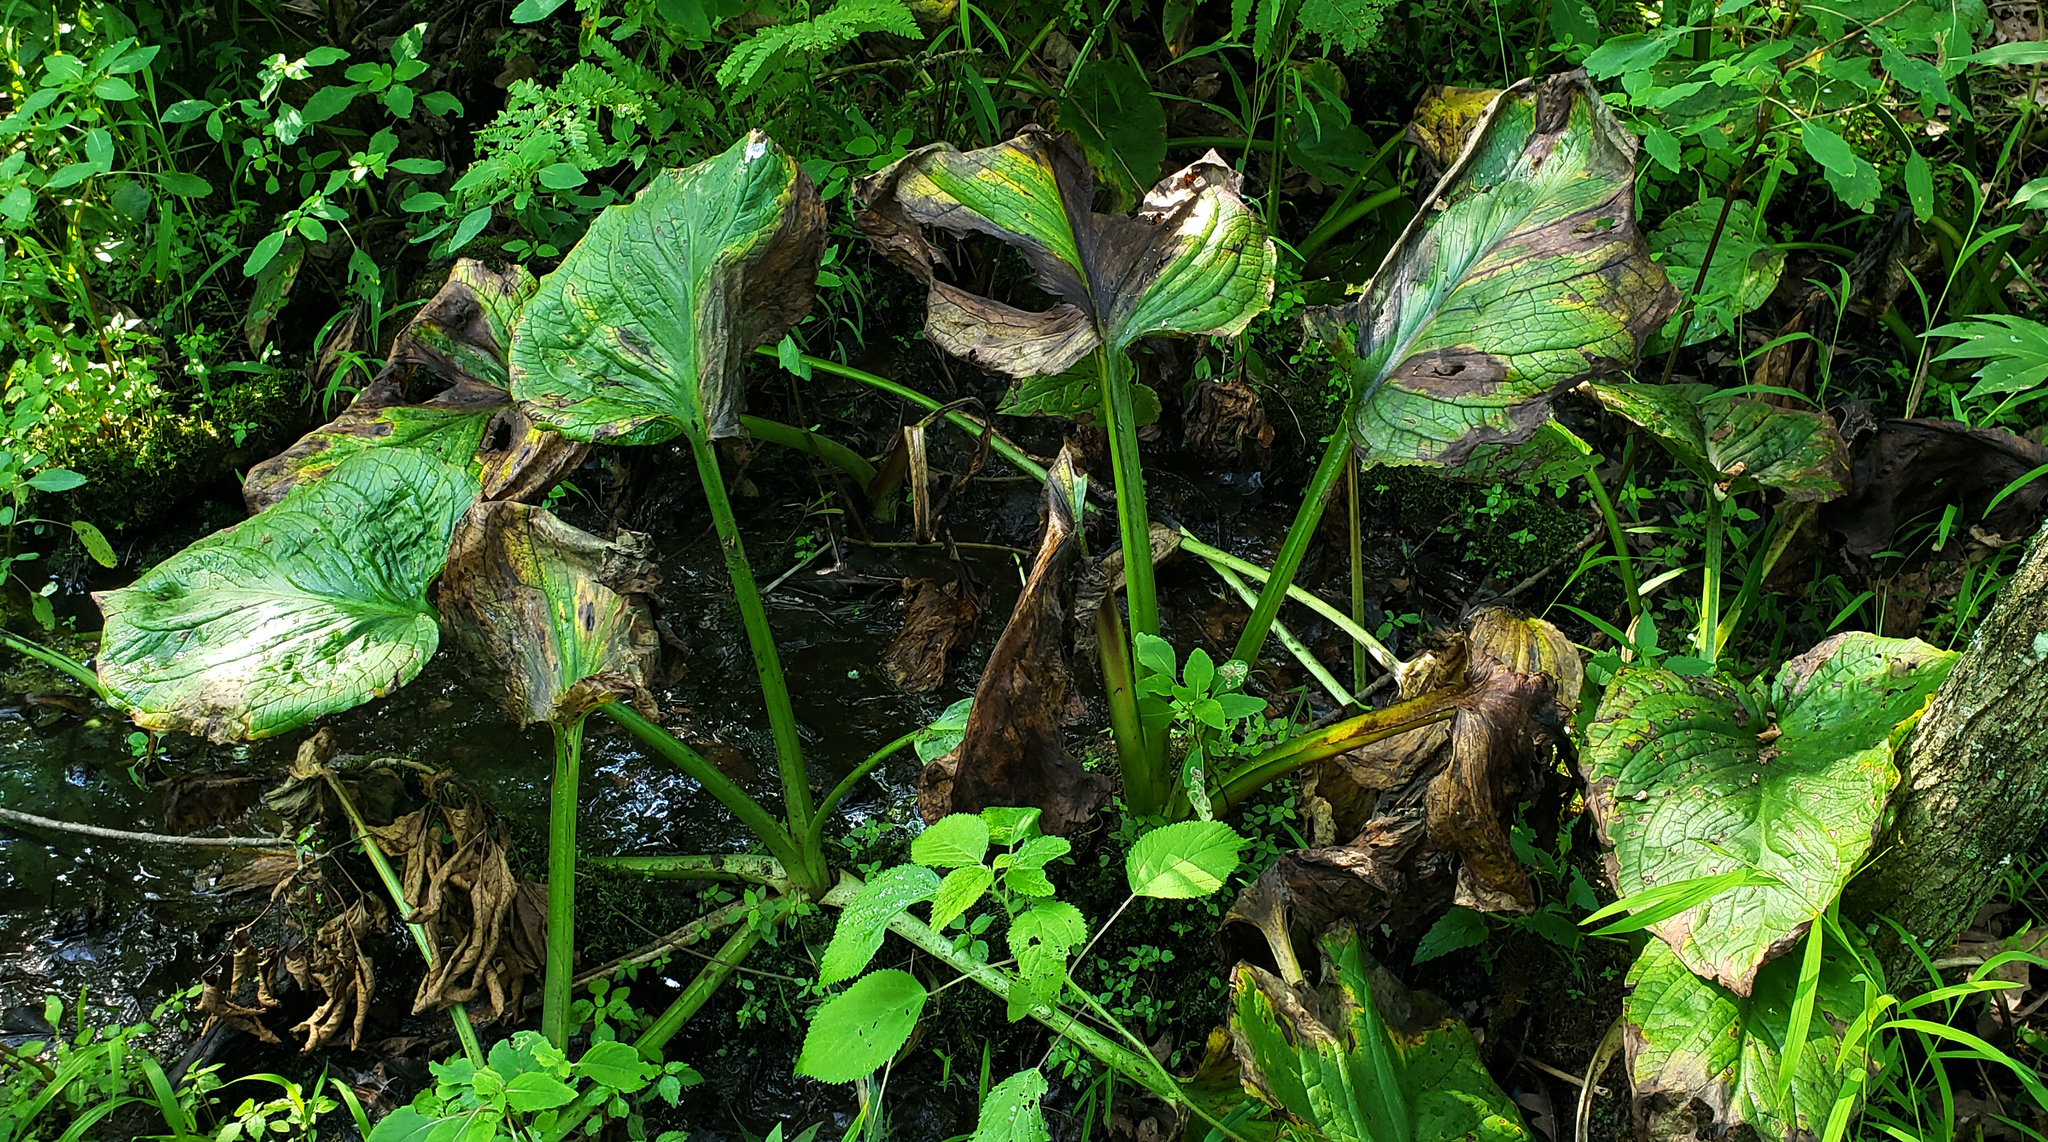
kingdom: Plantae
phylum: Tracheophyta
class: Liliopsida
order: Alismatales
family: Araceae
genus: Symplocarpus
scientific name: Symplocarpus foetidus
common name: Eastern skunk cabbage
